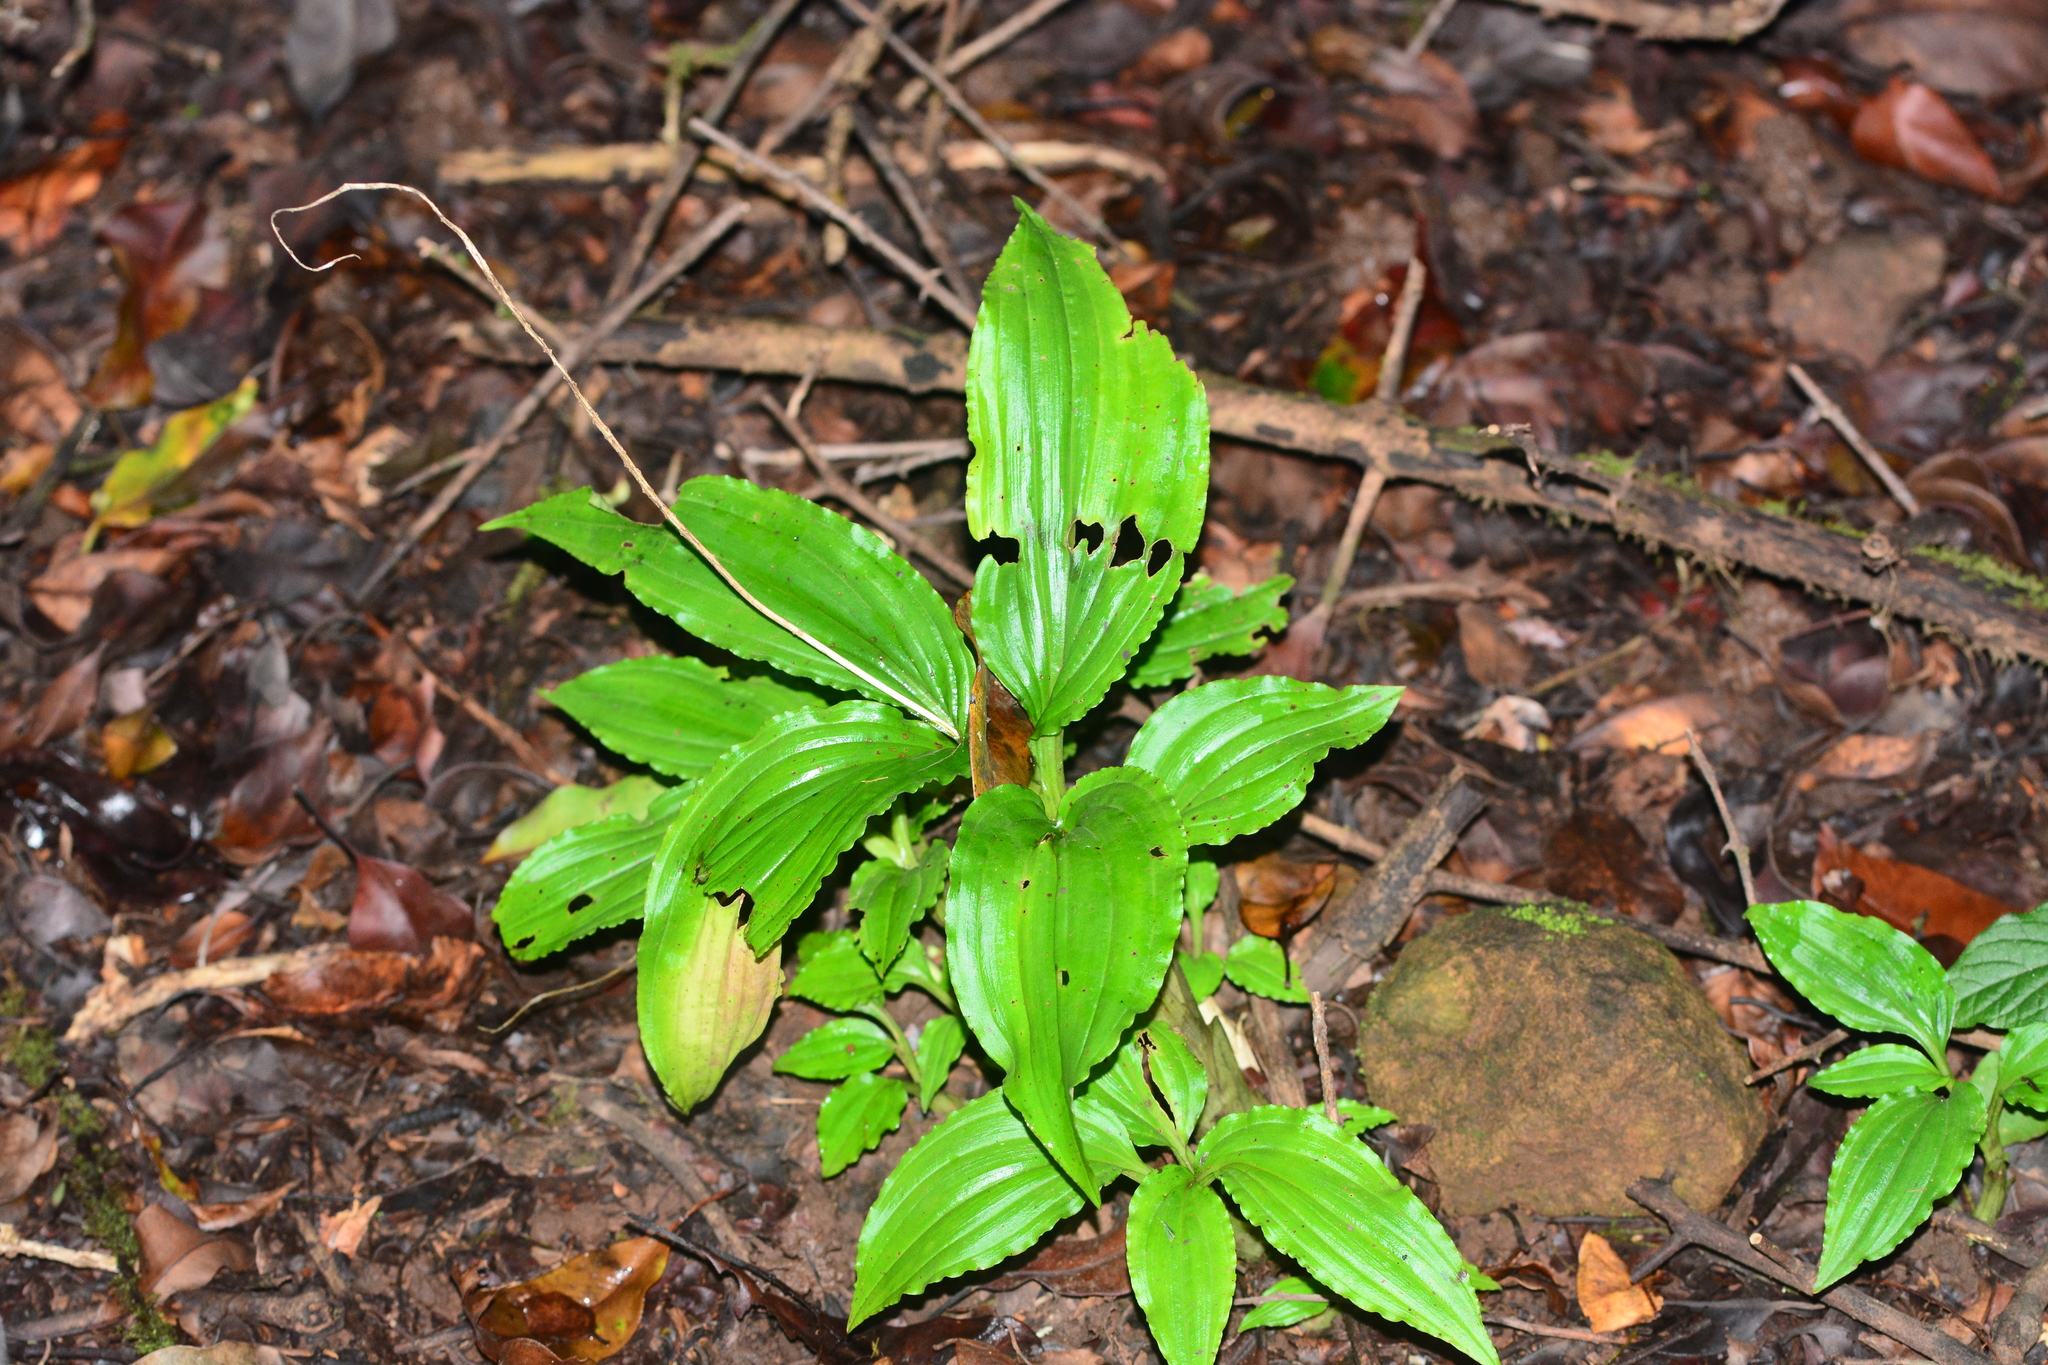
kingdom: Plantae
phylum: Tracheophyta
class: Liliopsida
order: Asparagales
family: Orchidaceae
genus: Malaxis
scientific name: Malaxis versicolor
